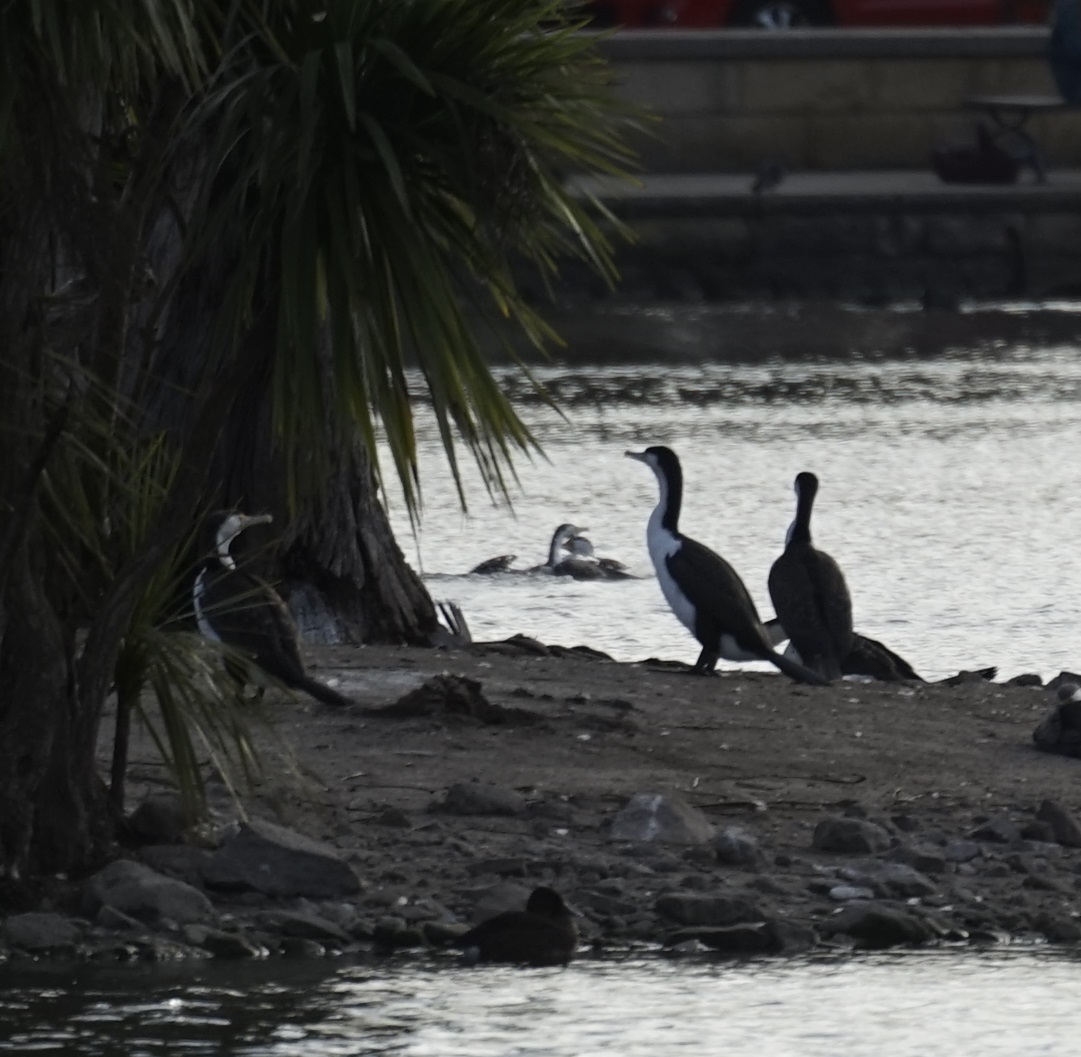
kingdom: Animalia
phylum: Chordata
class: Aves
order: Suliformes
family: Phalacrocoracidae
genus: Phalacrocorax
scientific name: Phalacrocorax varius
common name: Pied cormorant
